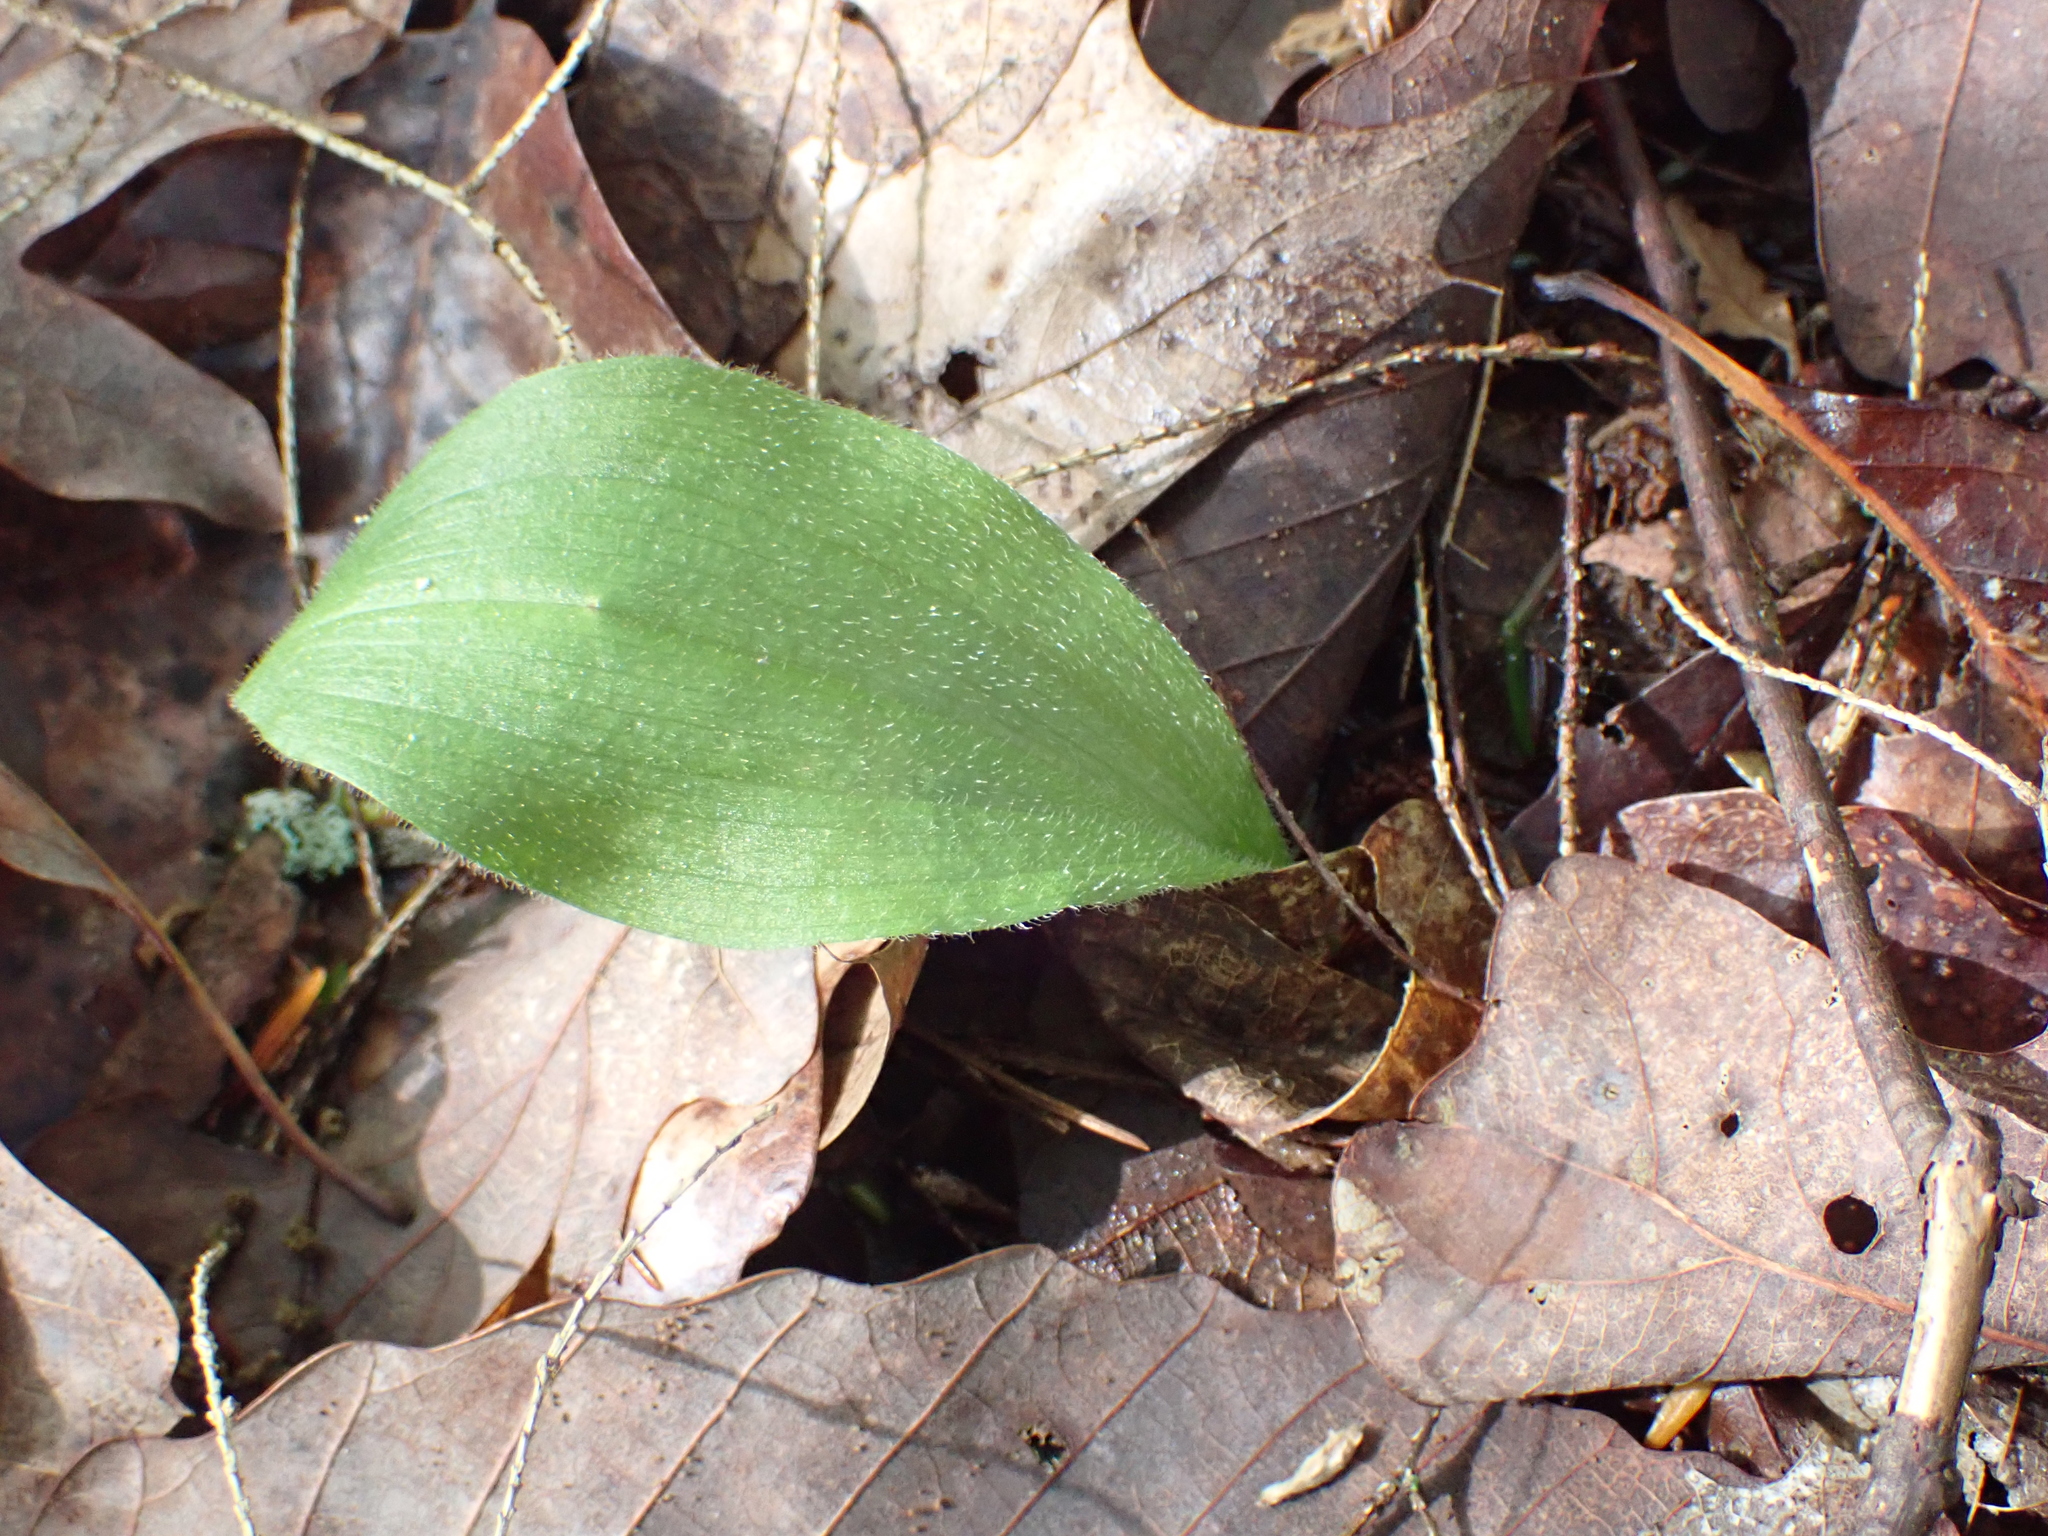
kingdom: Plantae
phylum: Tracheophyta
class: Liliopsida
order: Asparagales
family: Orchidaceae
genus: Cypripedium
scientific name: Cypripedium acaule
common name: Pink lady's-slipper
